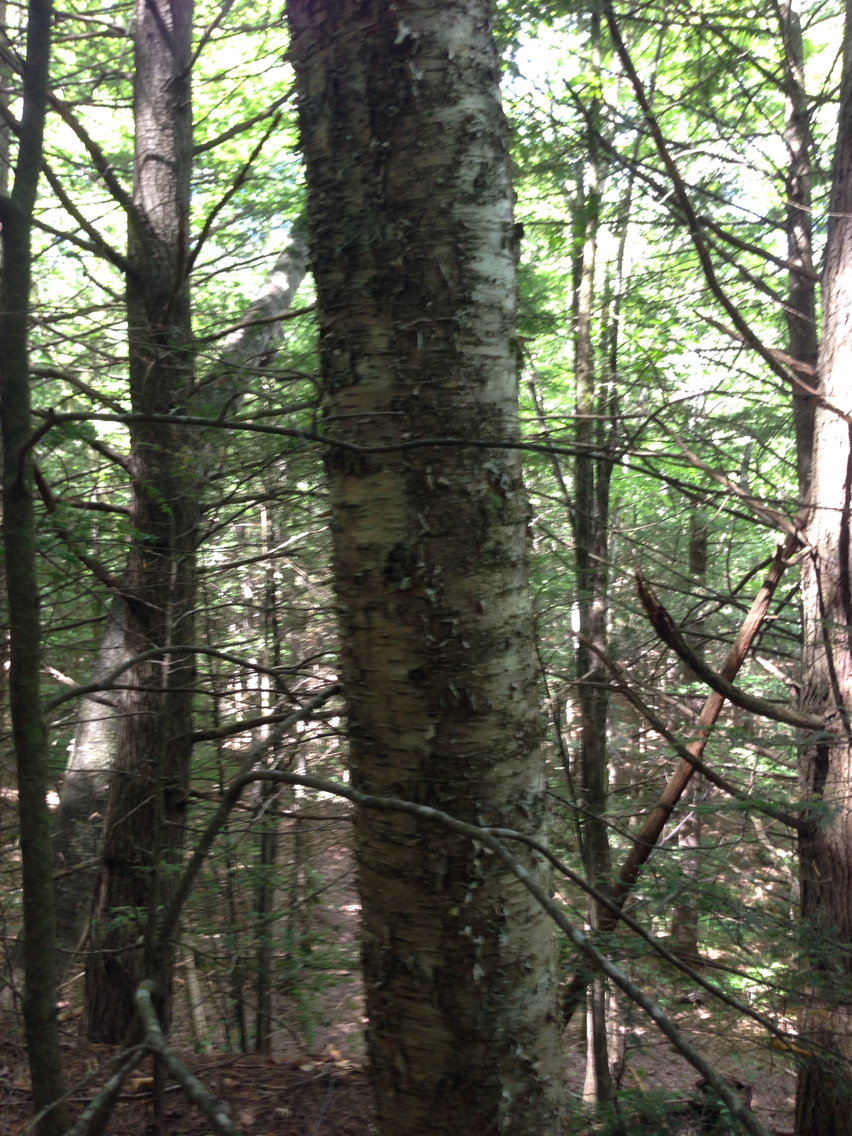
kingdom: Plantae
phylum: Tracheophyta
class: Magnoliopsida
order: Fagales
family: Betulaceae
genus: Betula
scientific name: Betula alleghaniensis
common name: Yellow birch
